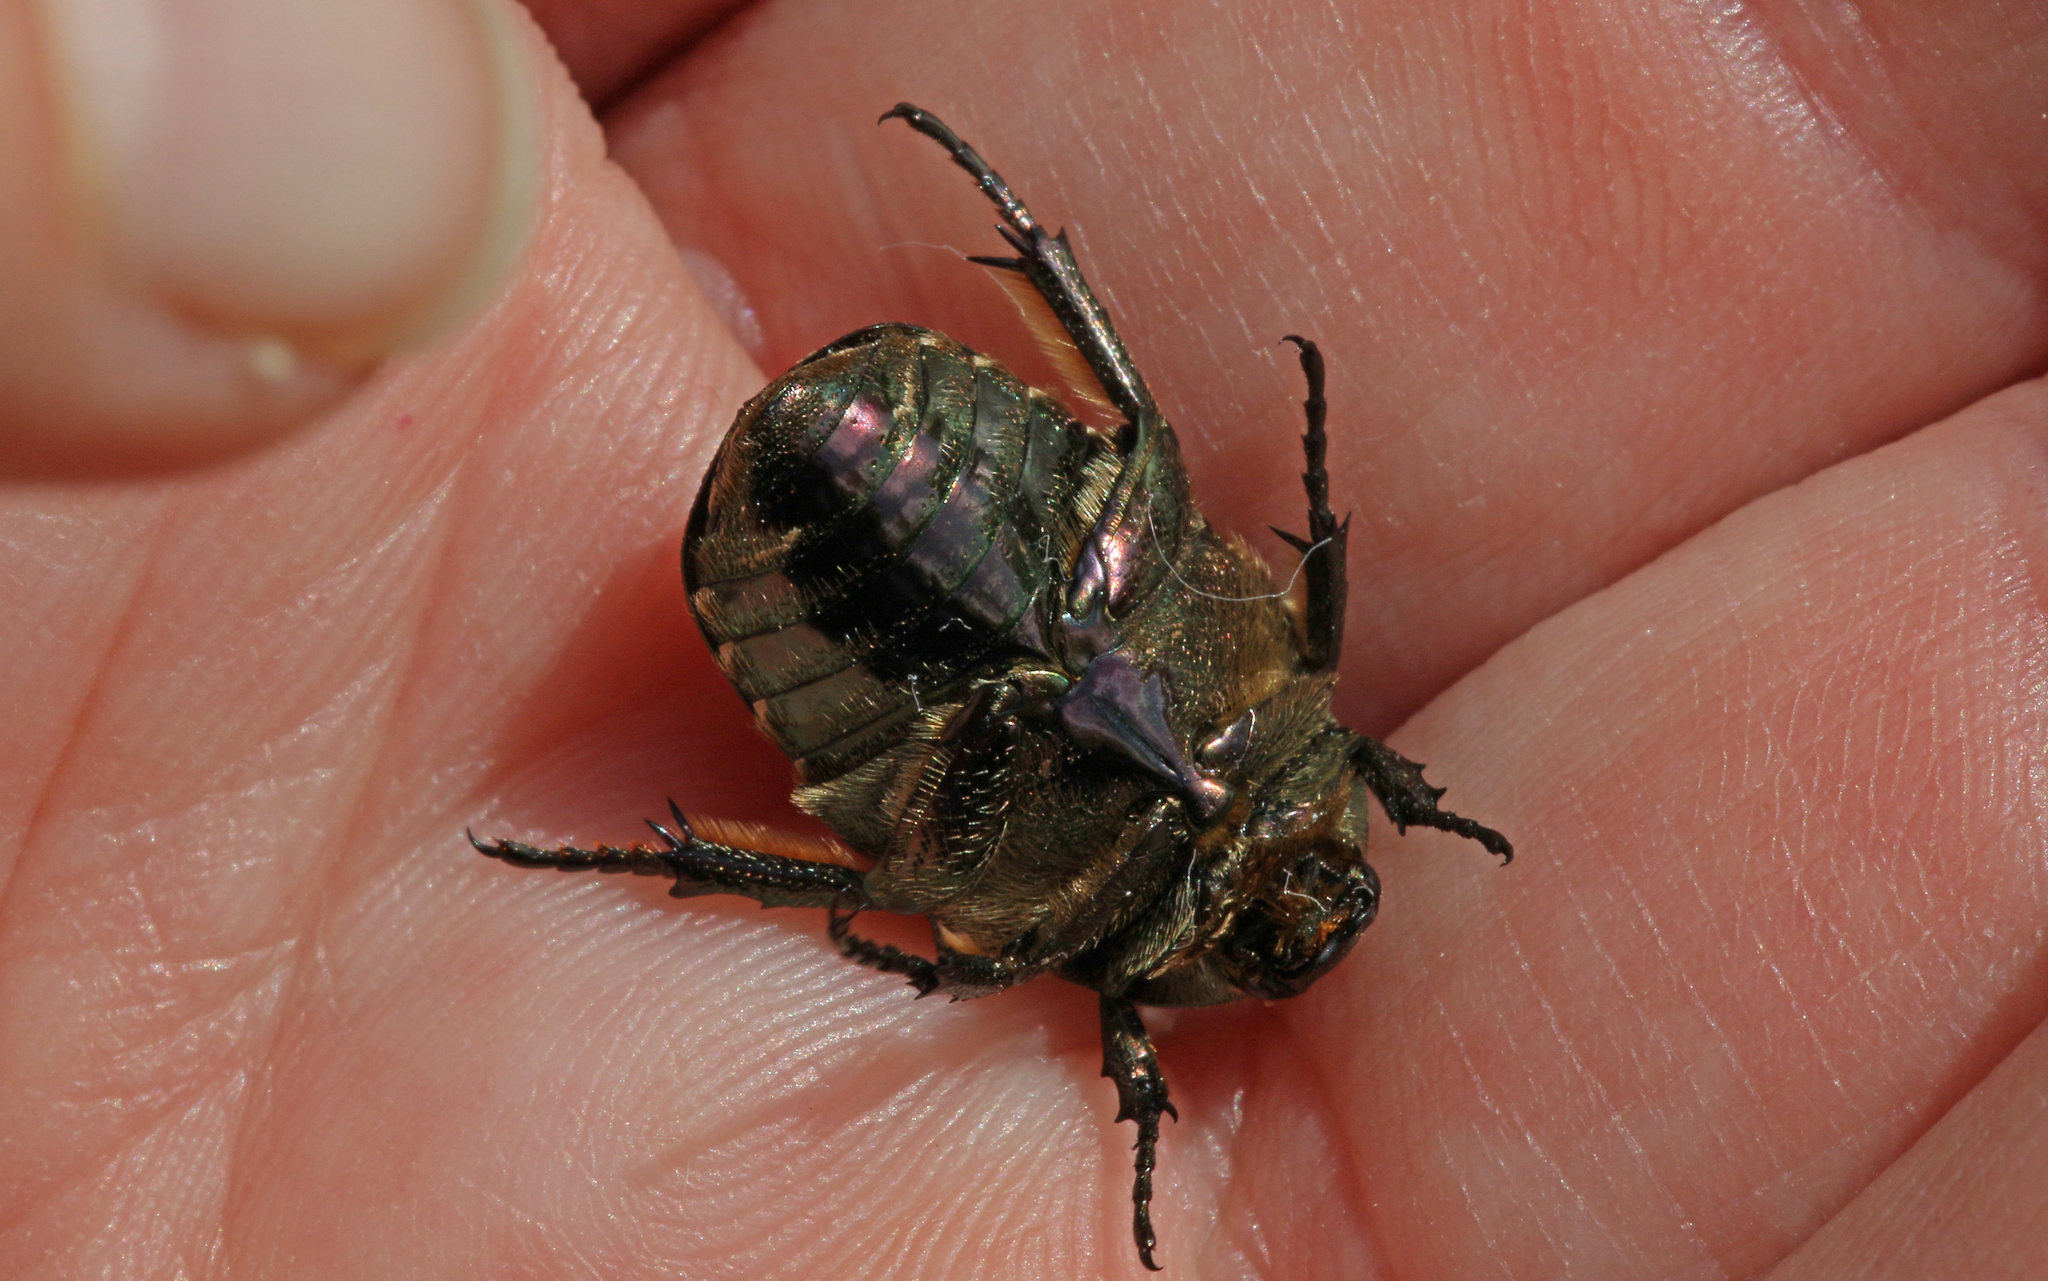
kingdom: Animalia
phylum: Arthropoda
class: Insecta
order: Coleoptera
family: Scarabaeidae
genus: Protaetia
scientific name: Protaetia cuprea
